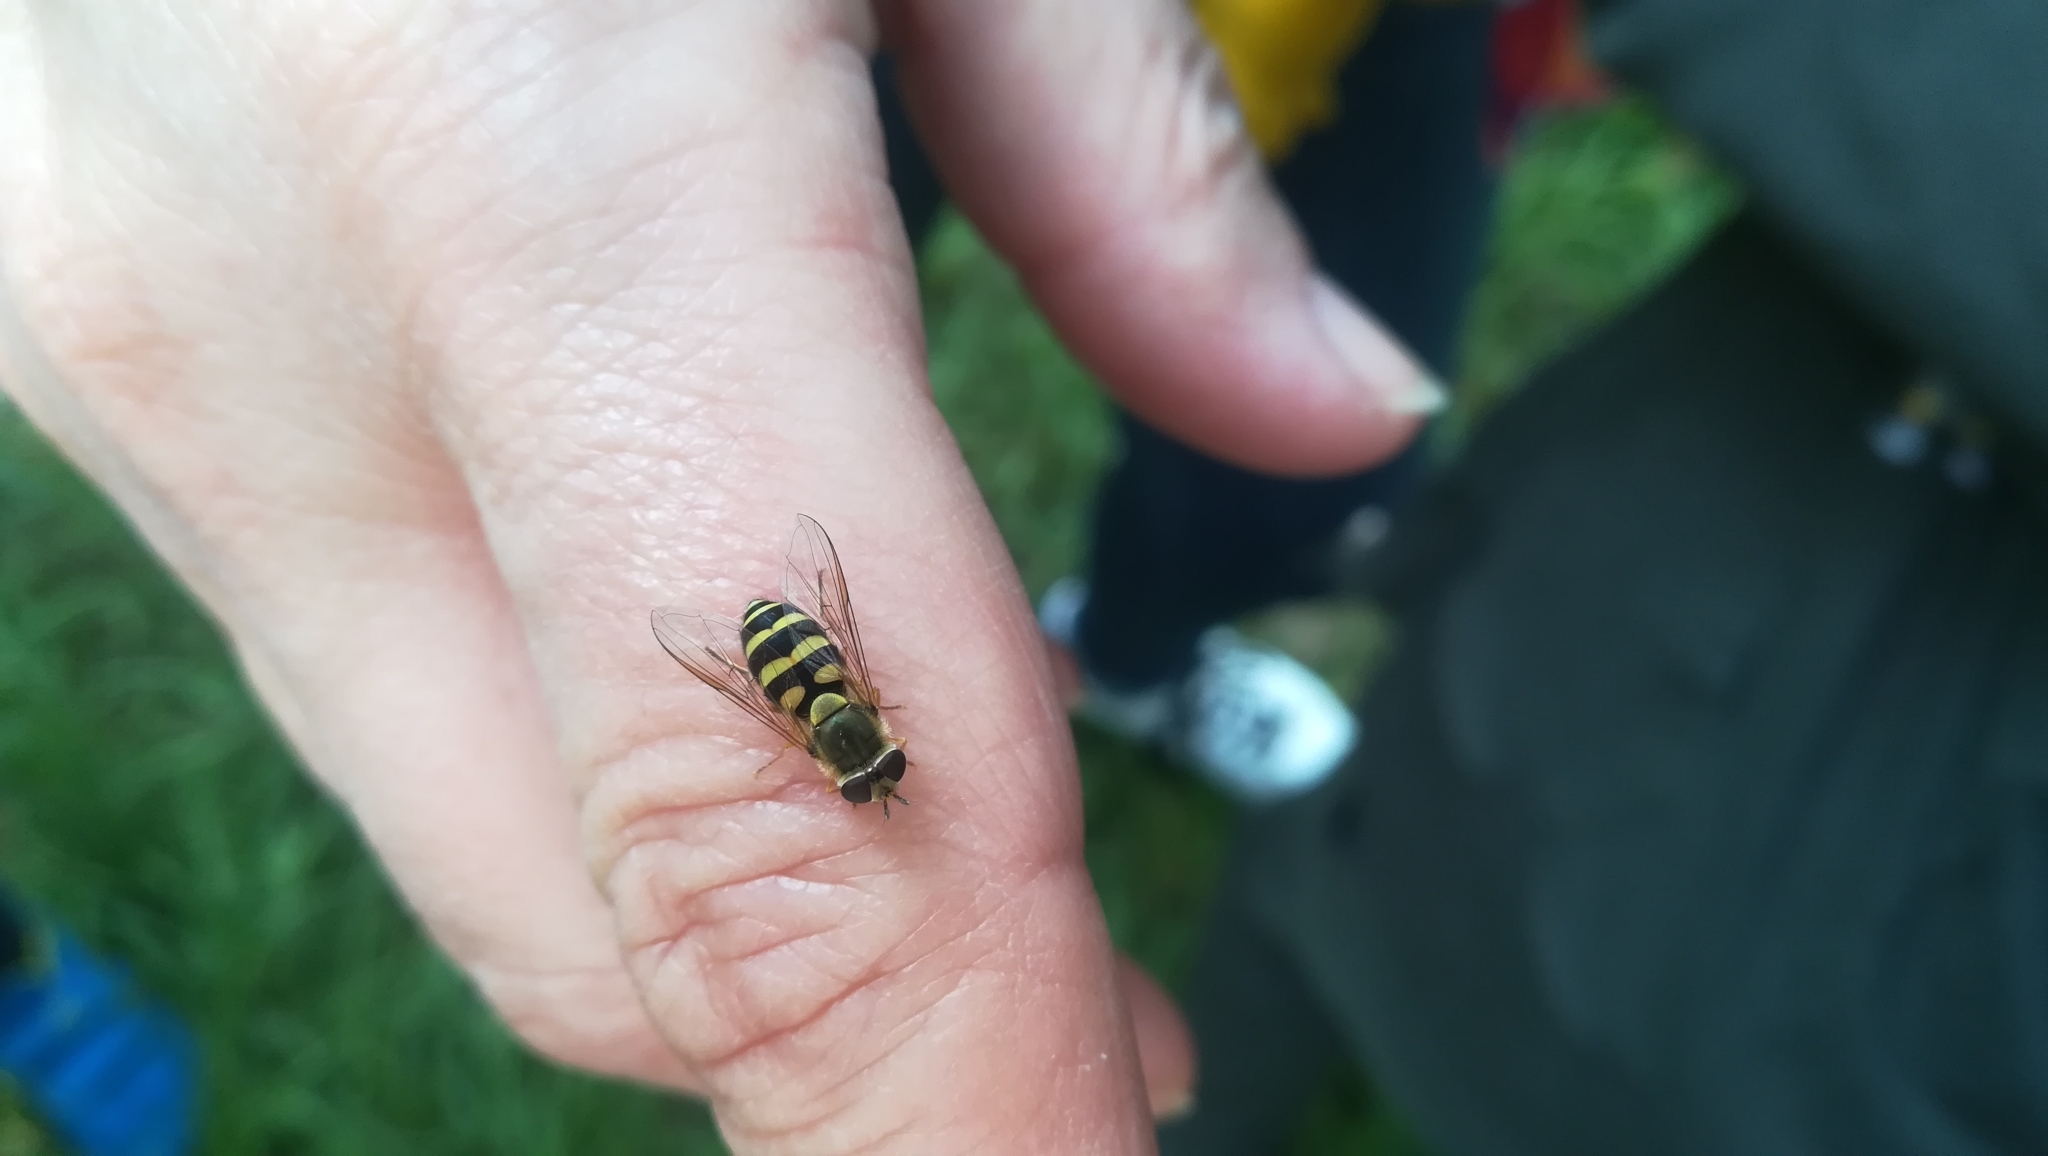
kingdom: Animalia
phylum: Arthropoda
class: Insecta
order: Diptera
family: Syrphidae
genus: Syrphus
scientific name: Syrphus
